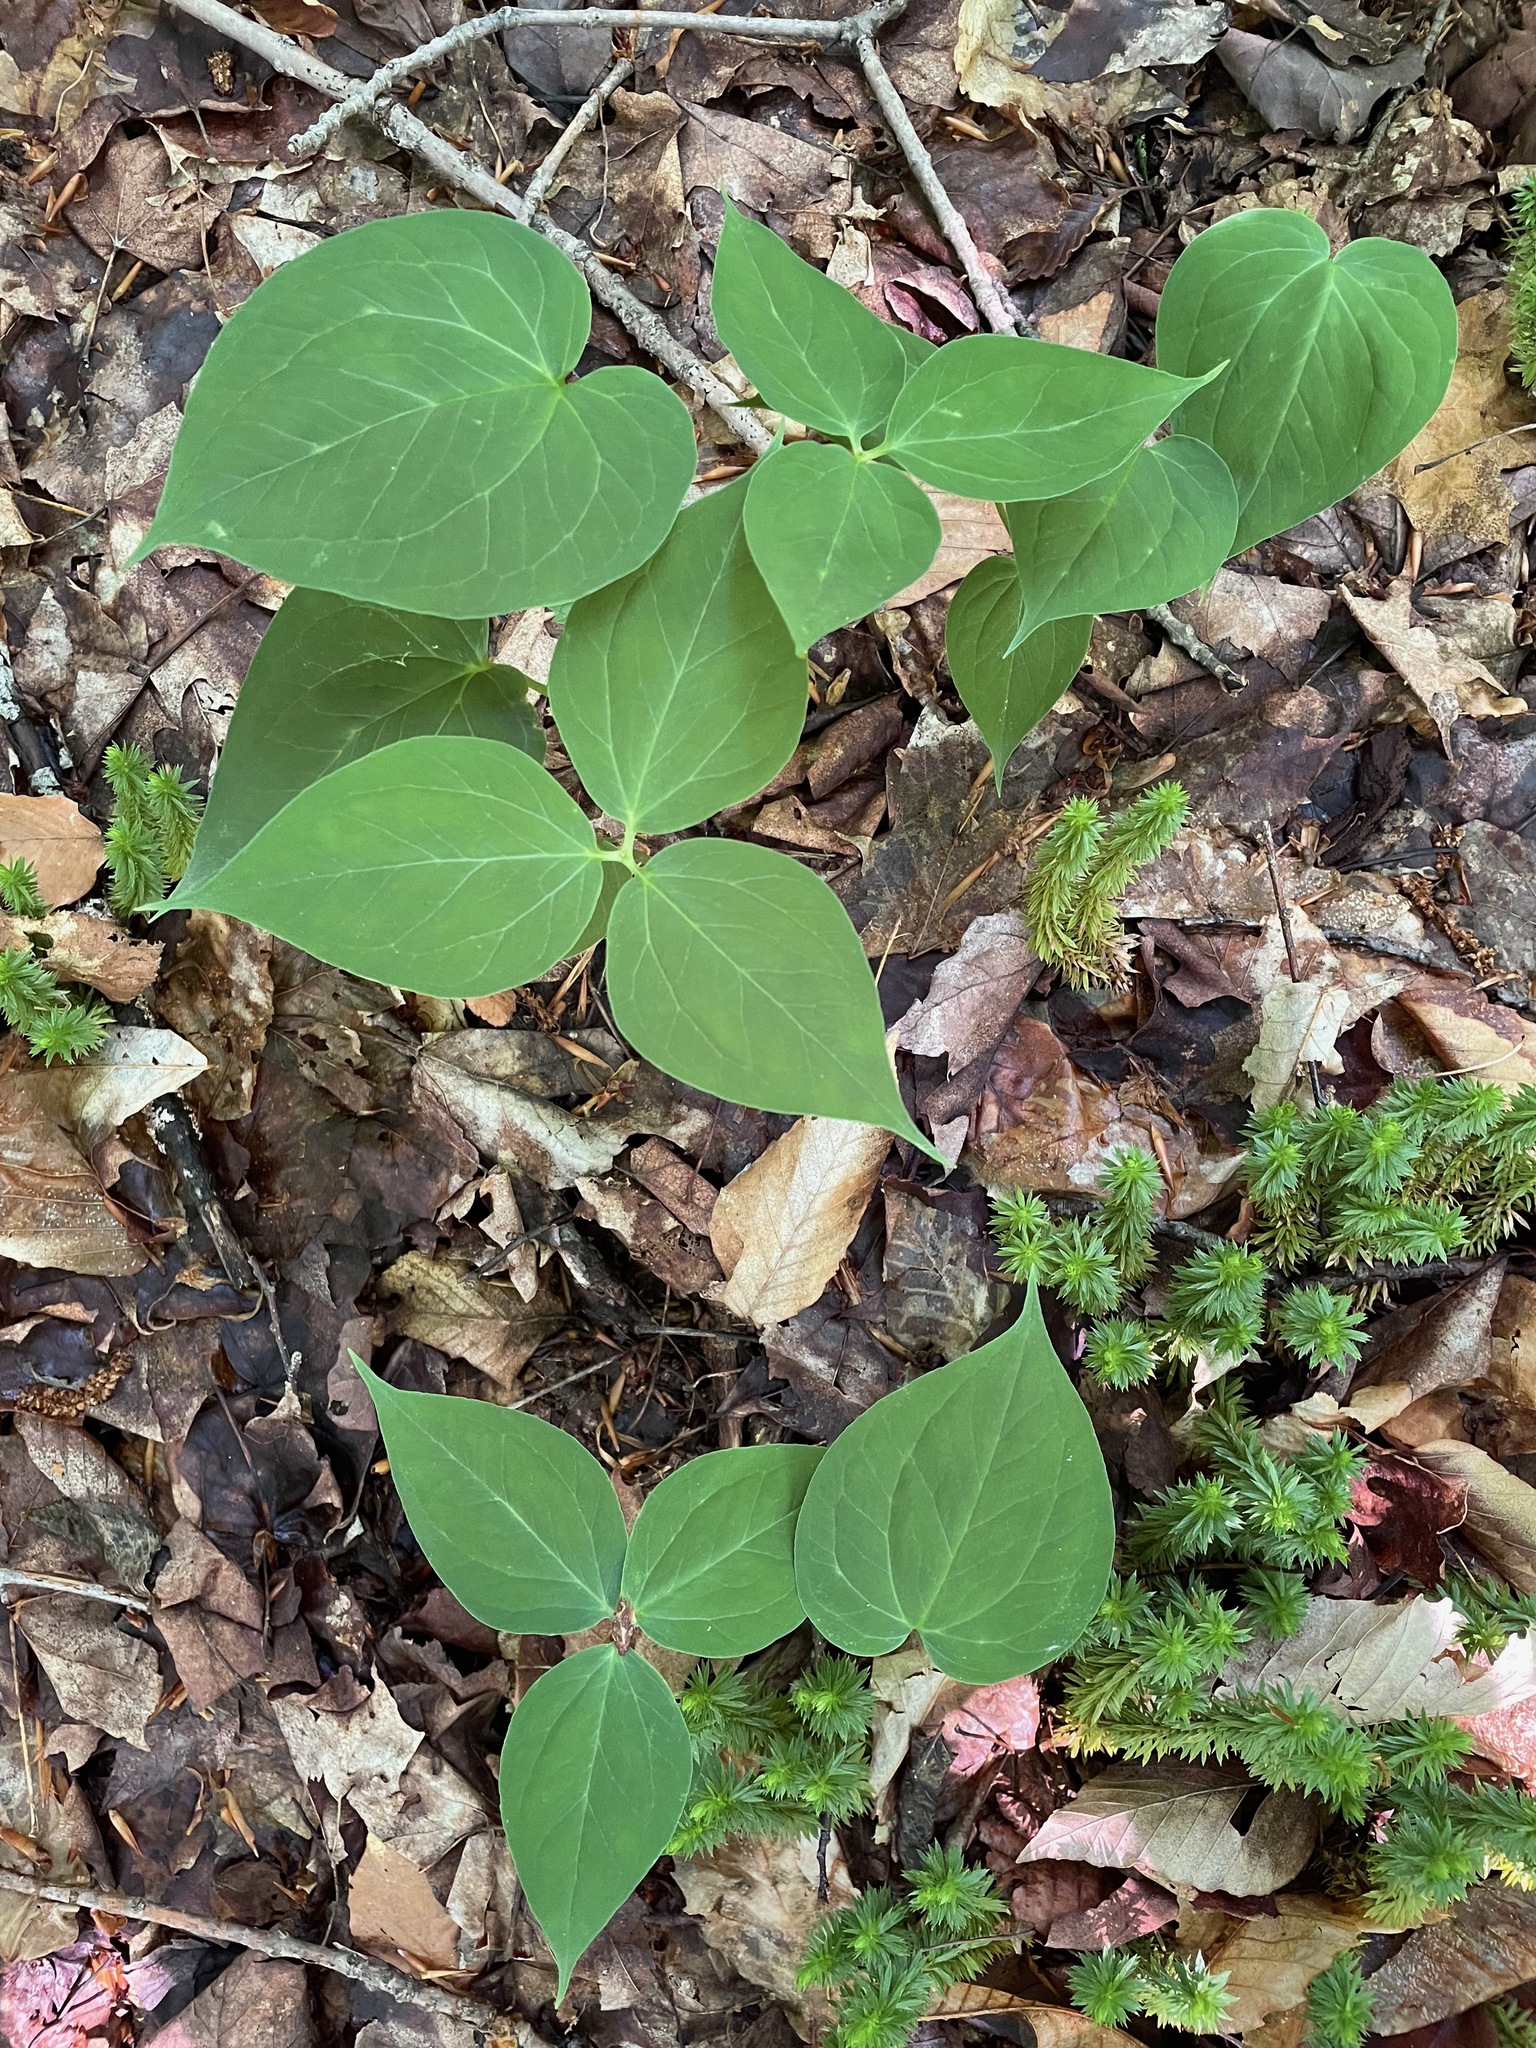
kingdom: Plantae
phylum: Tracheophyta
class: Liliopsida
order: Liliales
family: Melanthiaceae
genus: Trillium
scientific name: Trillium undulatum
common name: Paint trillium
